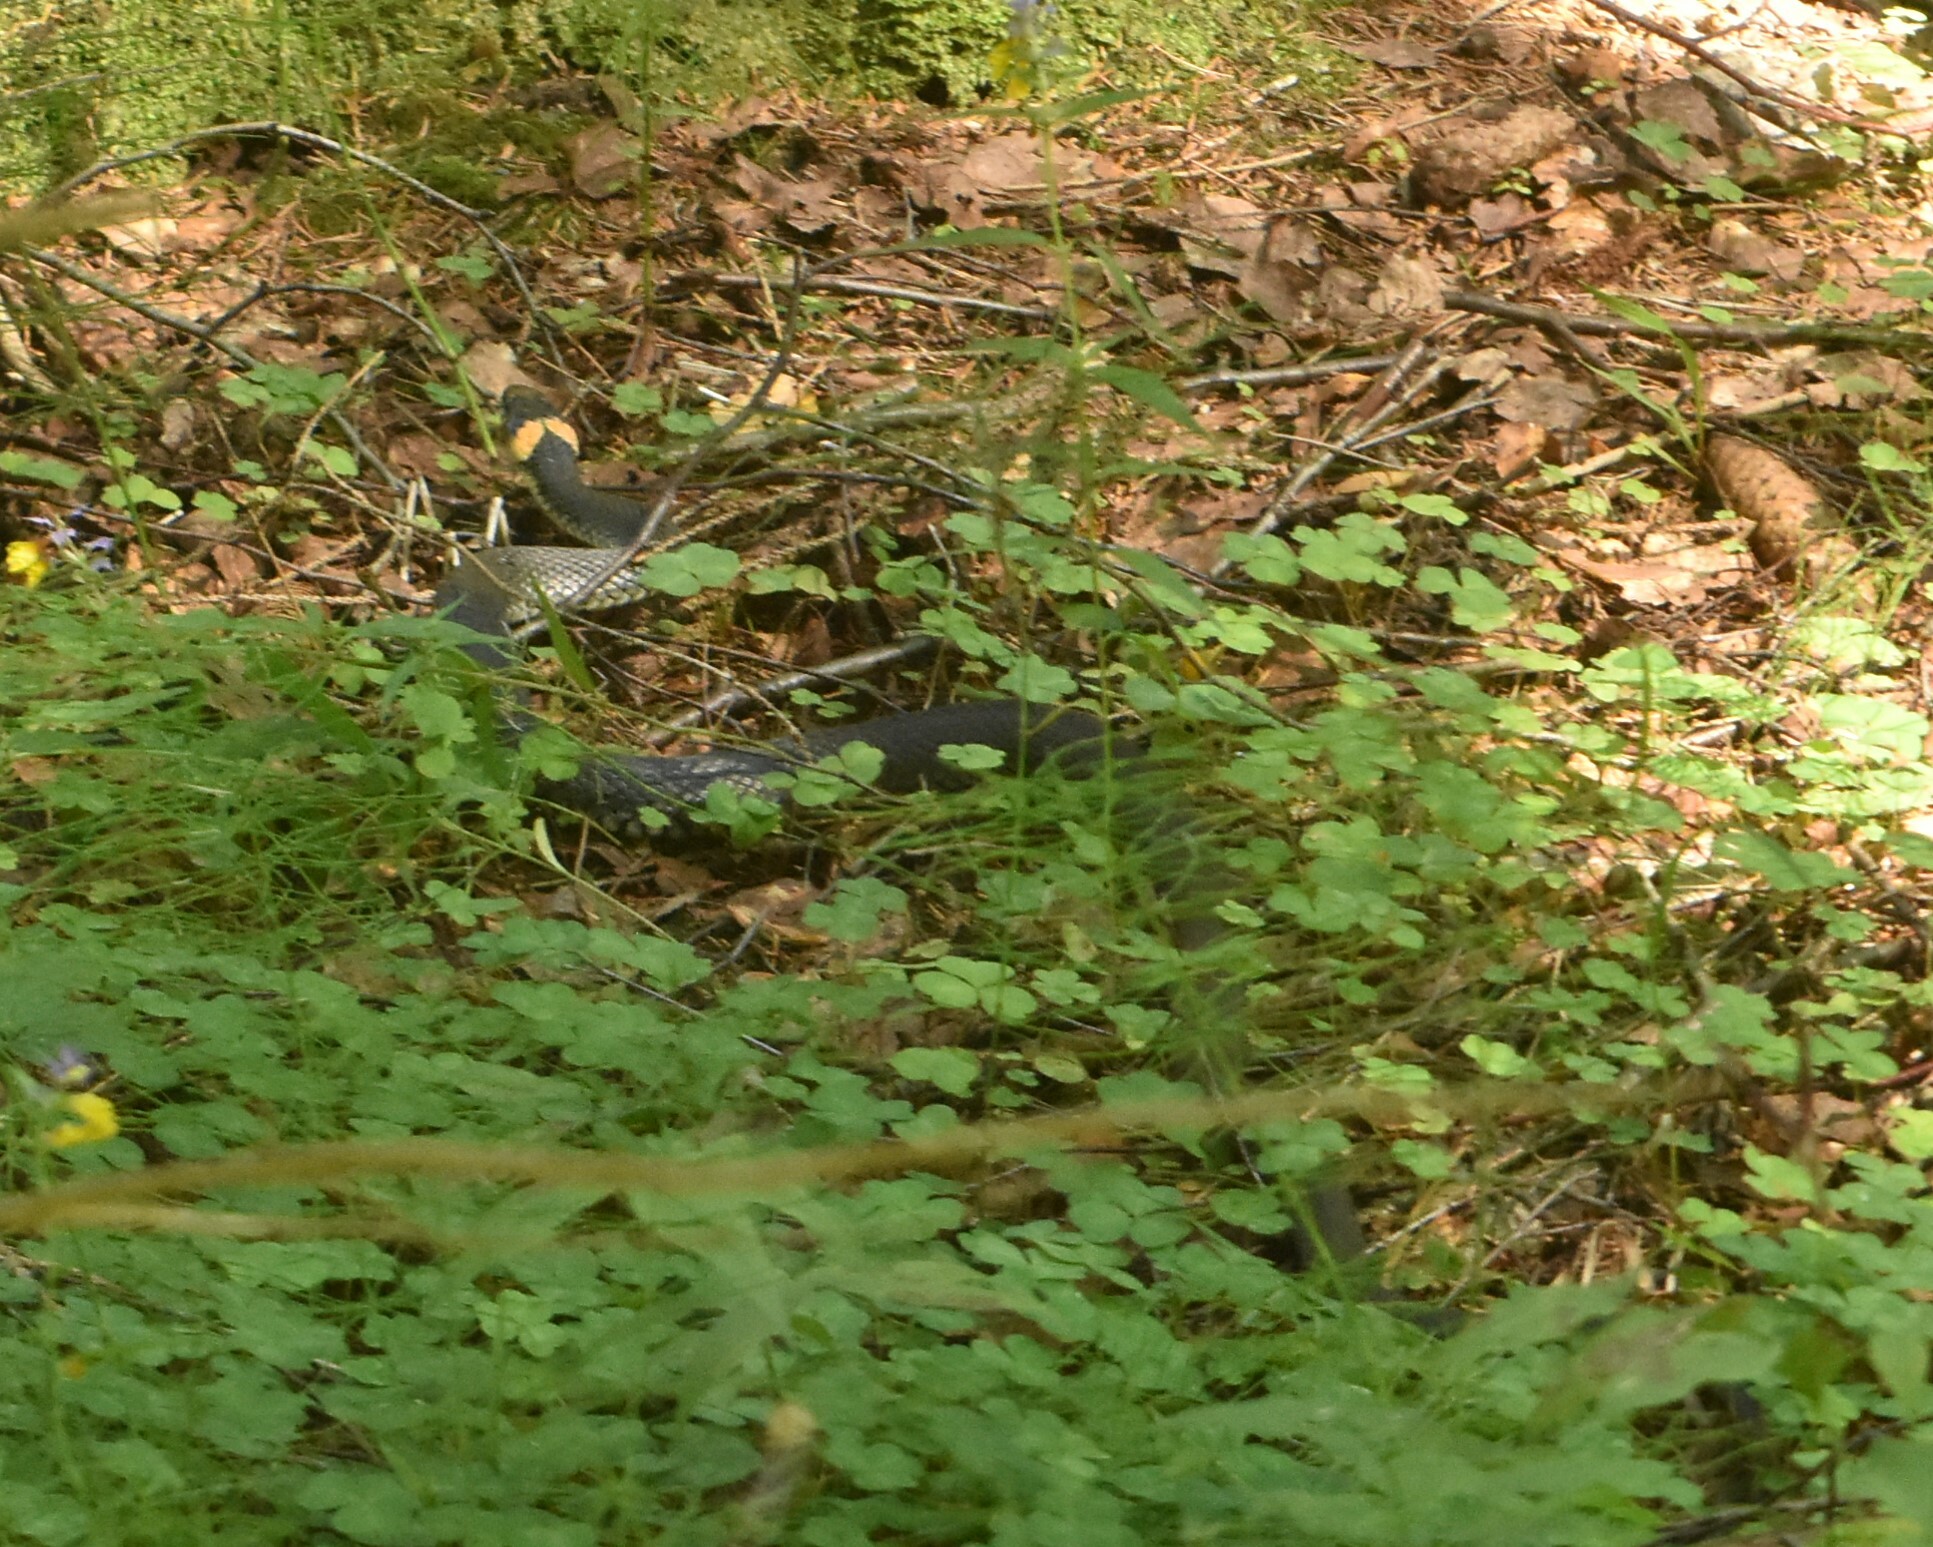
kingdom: Animalia
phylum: Chordata
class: Squamata
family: Colubridae
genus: Natrix
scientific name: Natrix natrix
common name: Grass snake
